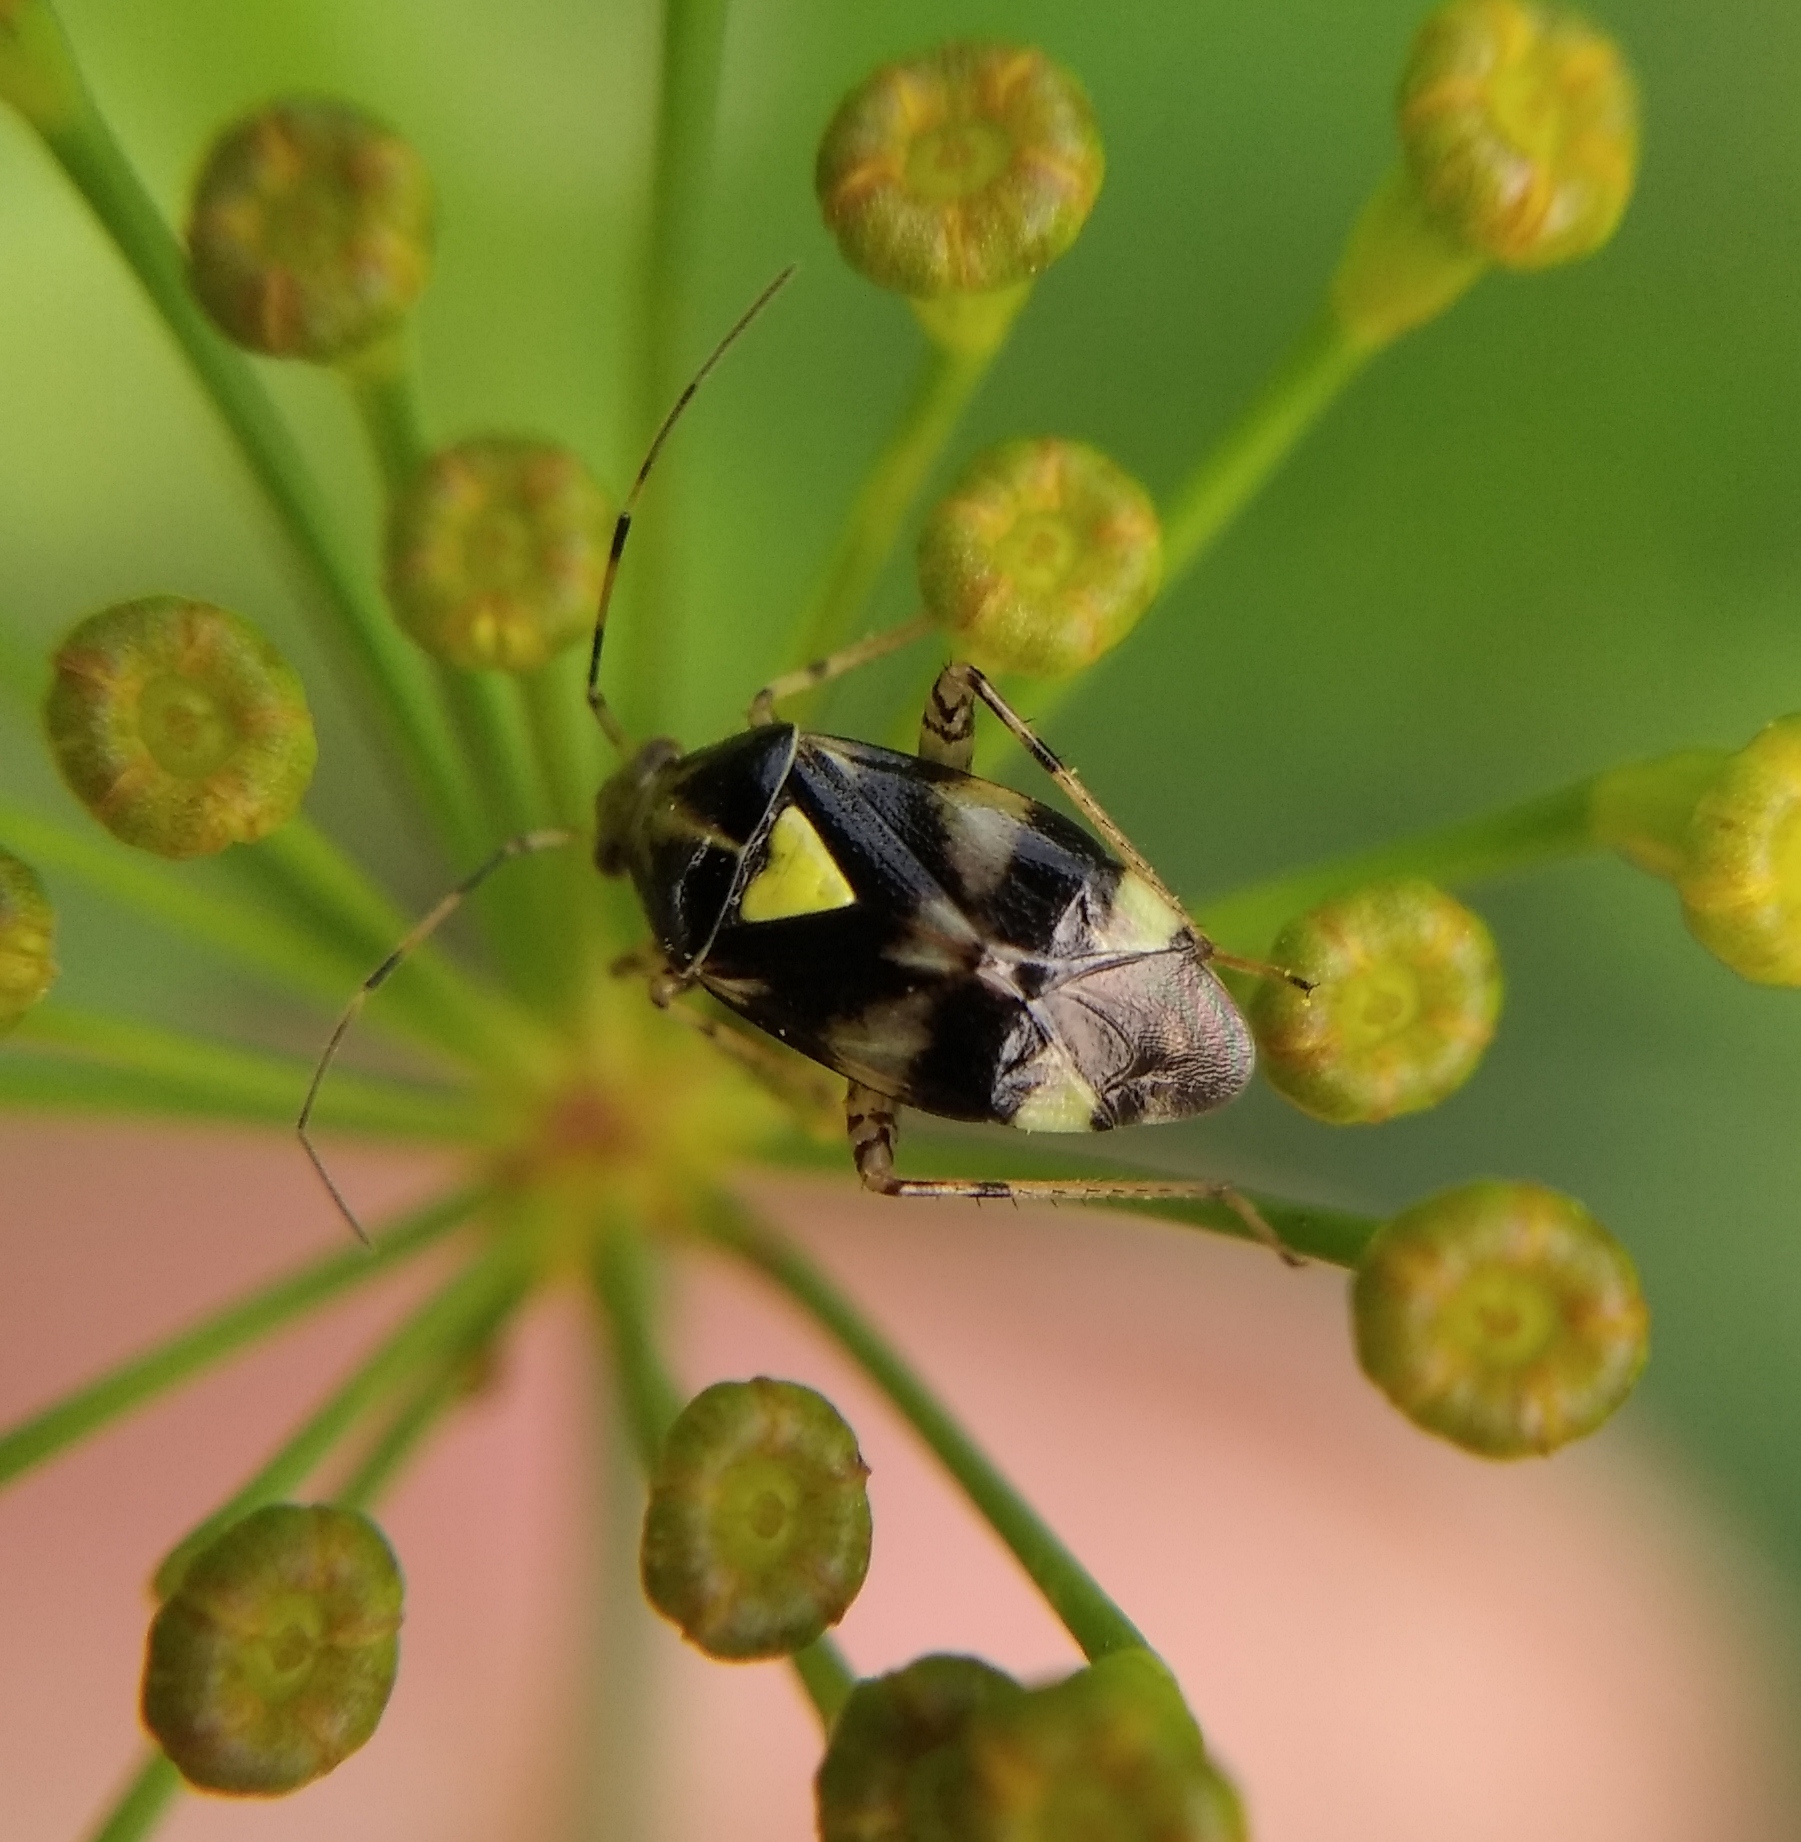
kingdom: Animalia
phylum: Arthropoda
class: Insecta
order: Hemiptera
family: Miridae
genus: Liocoris
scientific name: Liocoris tripustulatus
